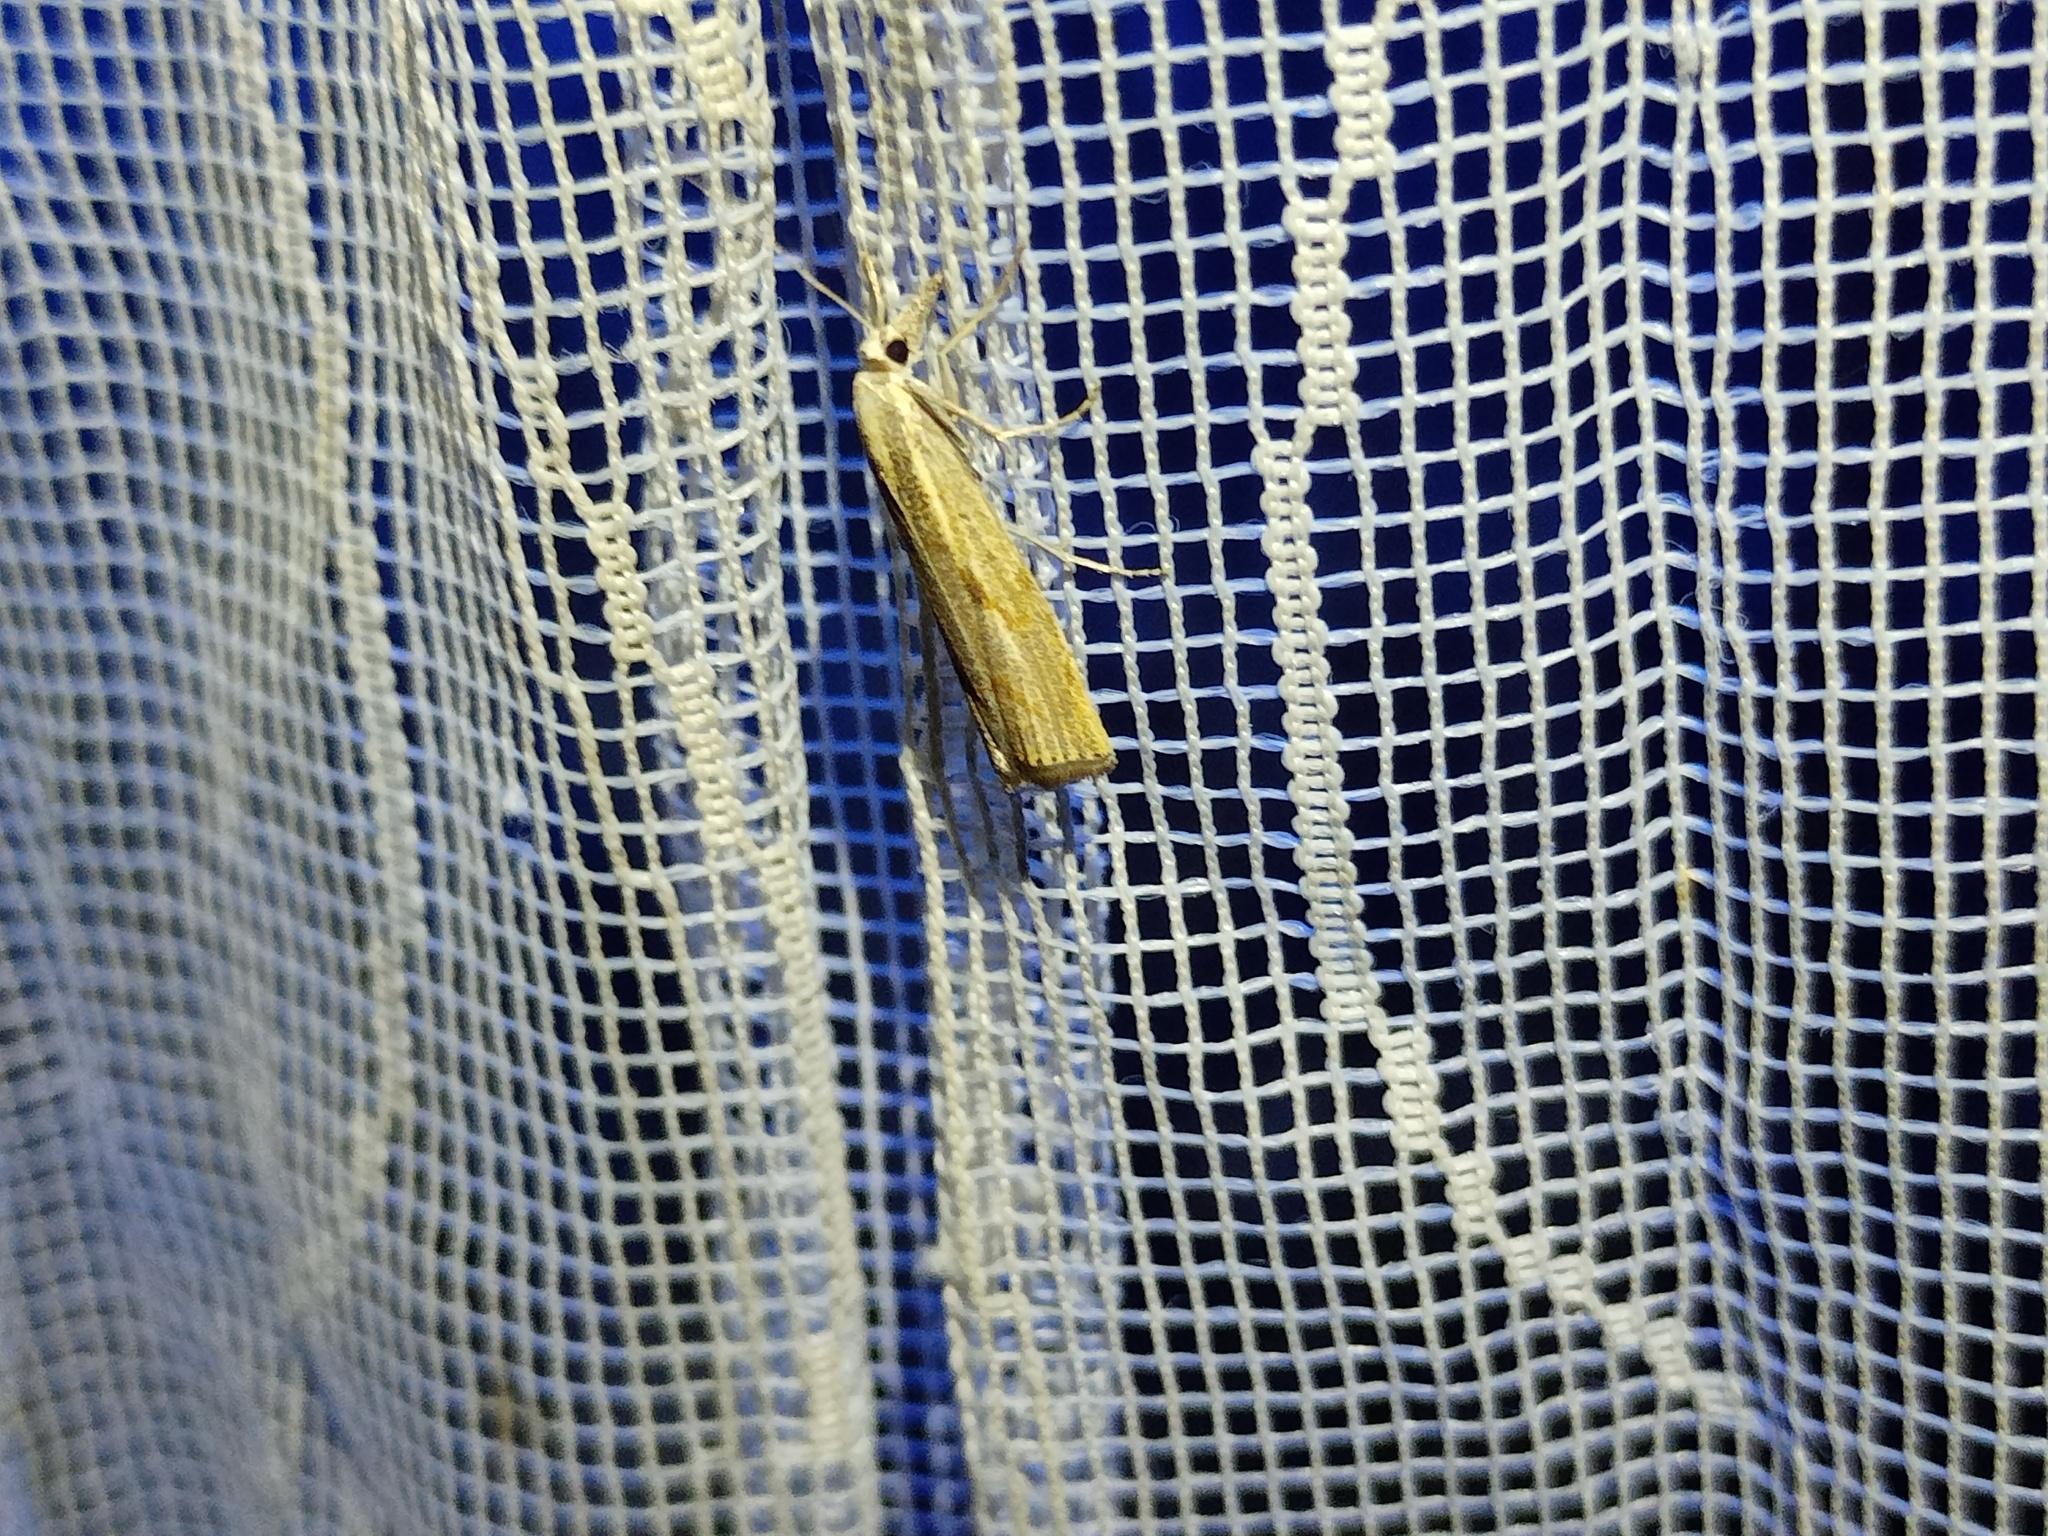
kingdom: Animalia
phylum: Arthropoda
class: Insecta
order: Lepidoptera
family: Crambidae
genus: Agriphila
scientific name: Agriphila geniculea
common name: Elbow-stripe grass-veneer
